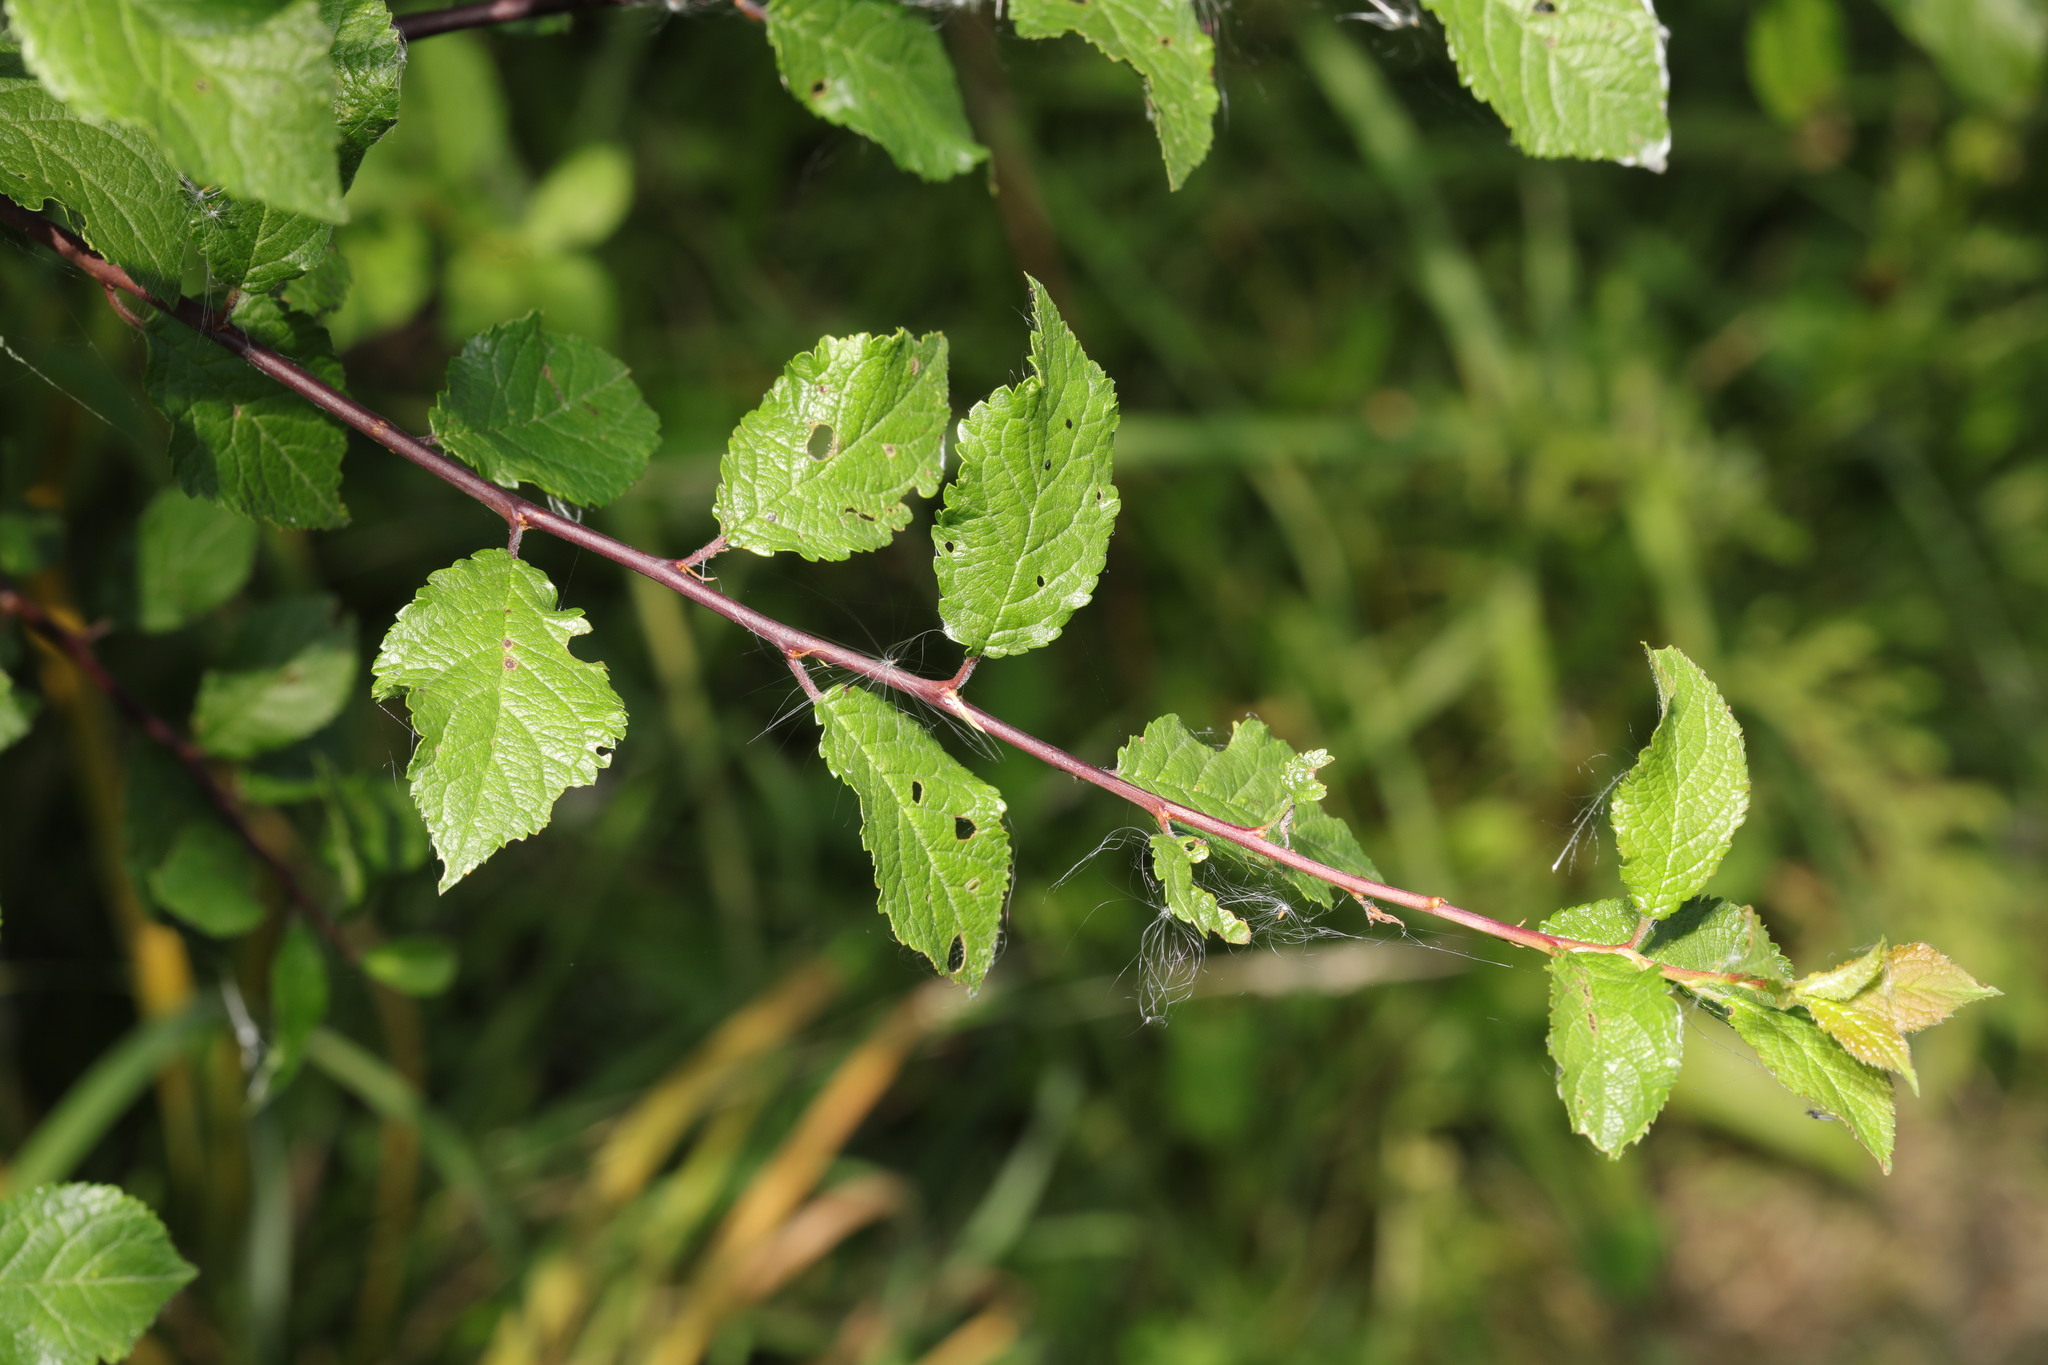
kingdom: Plantae
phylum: Tracheophyta
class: Magnoliopsida
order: Rosales
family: Rosaceae
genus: Prunus
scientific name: Prunus spinosa
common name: Blackthorn
